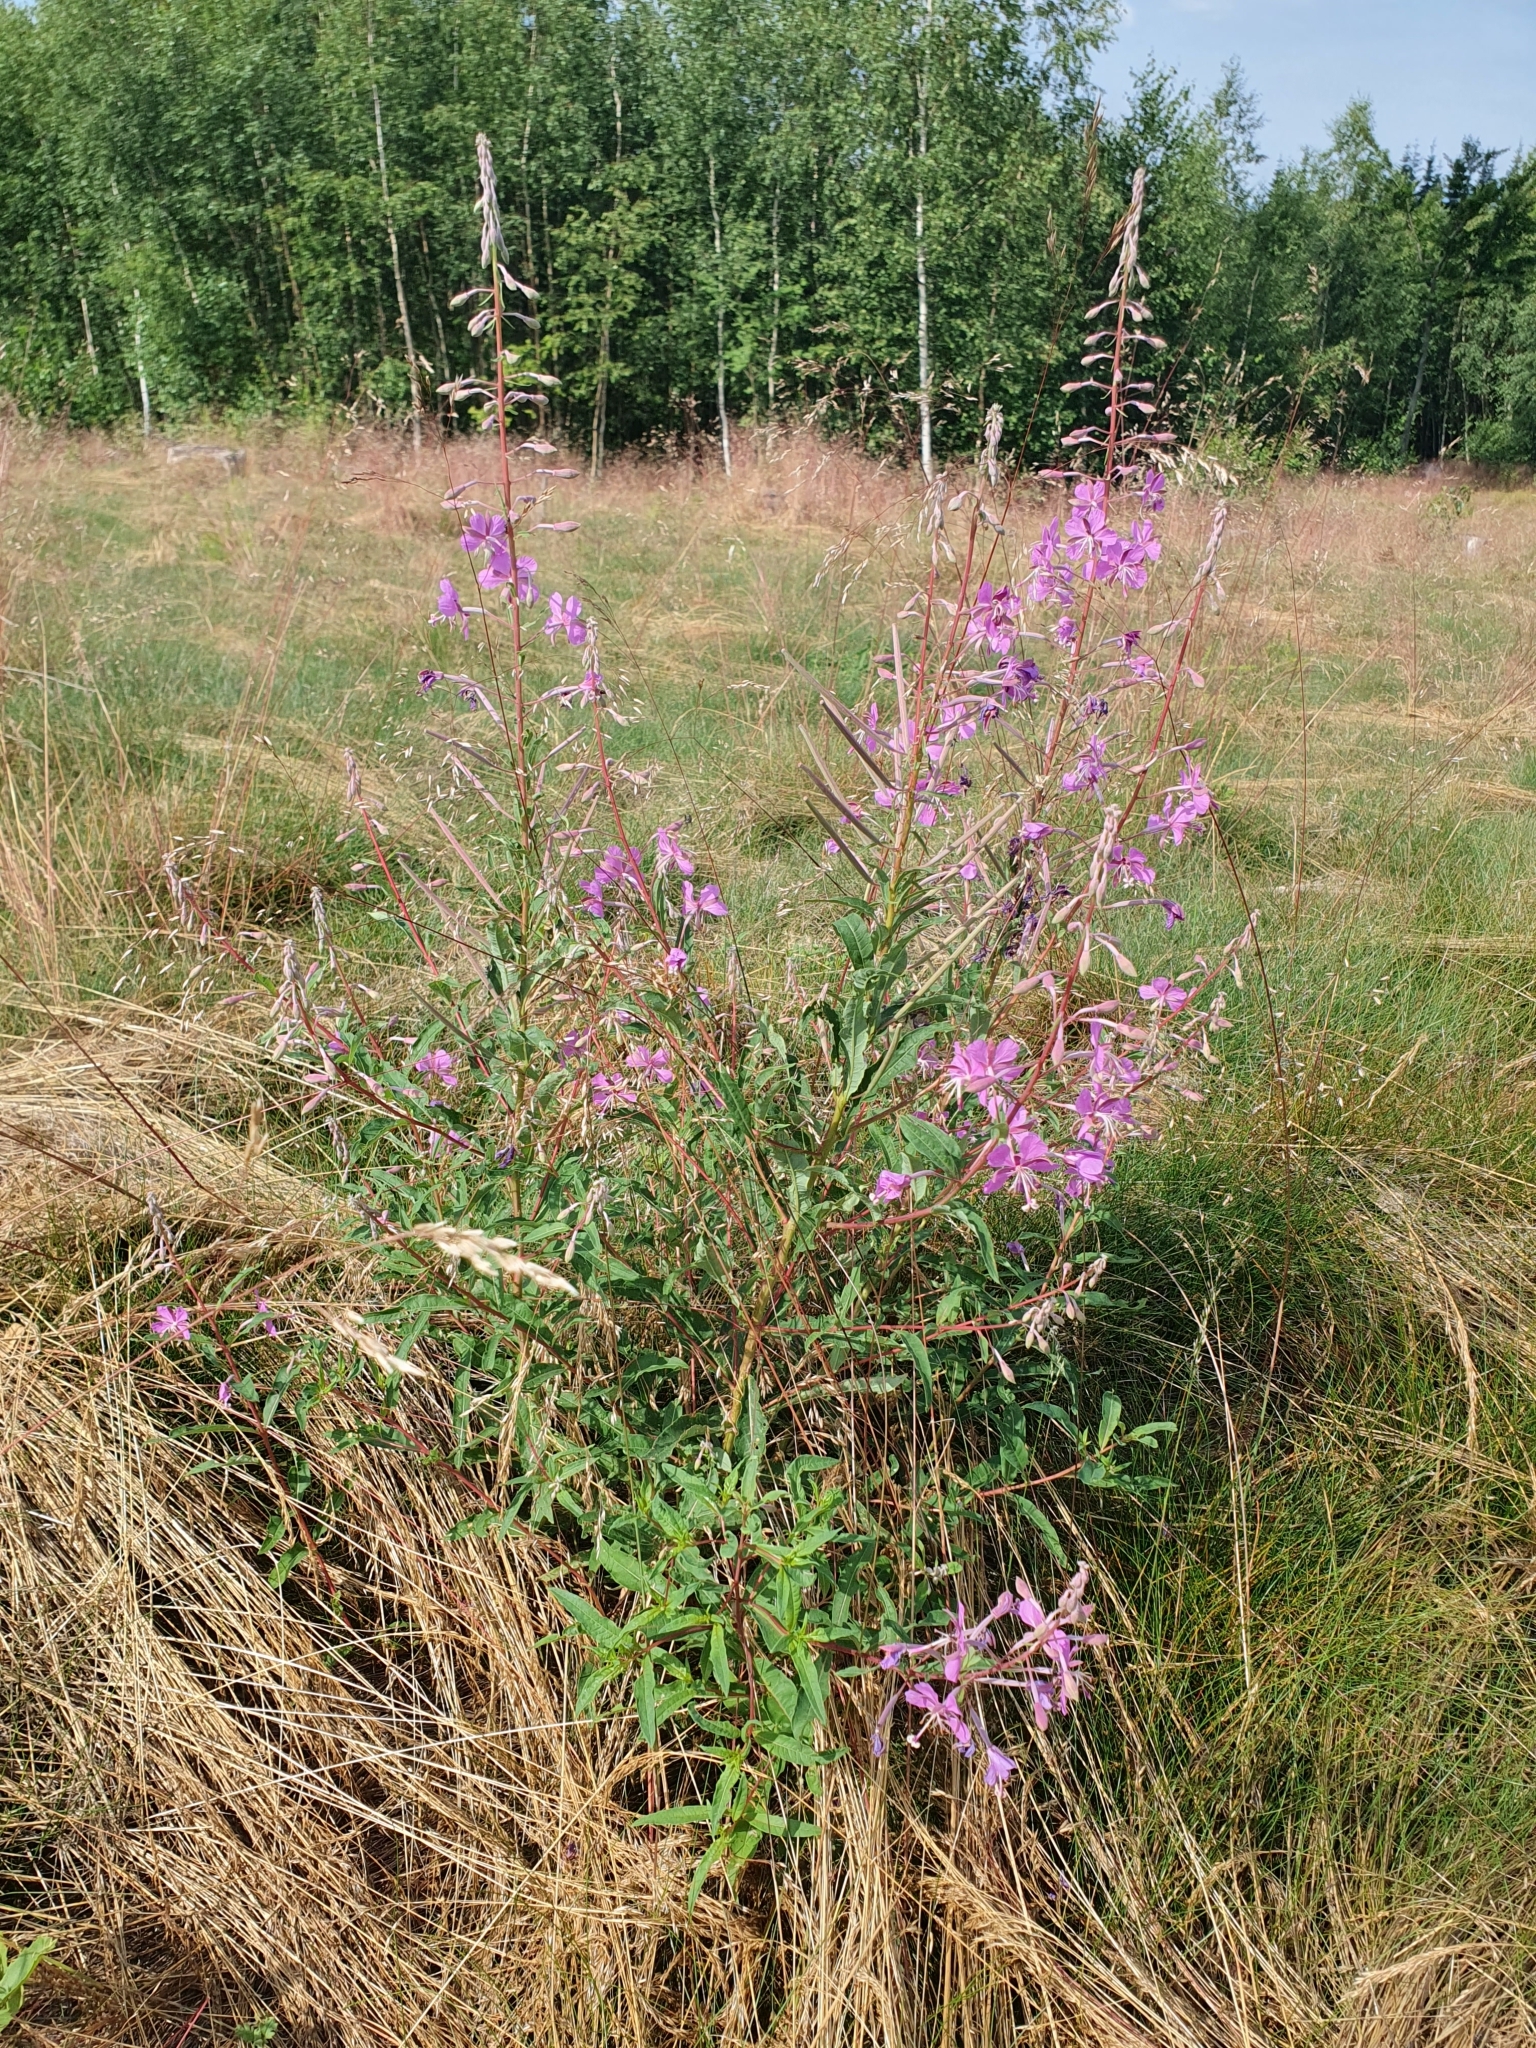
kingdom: Plantae
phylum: Tracheophyta
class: Magnoliopsida
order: Myrtales
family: Onagraceae
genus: Chamaenerion
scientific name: Chamaenerion angustifolium
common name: Fireweed
